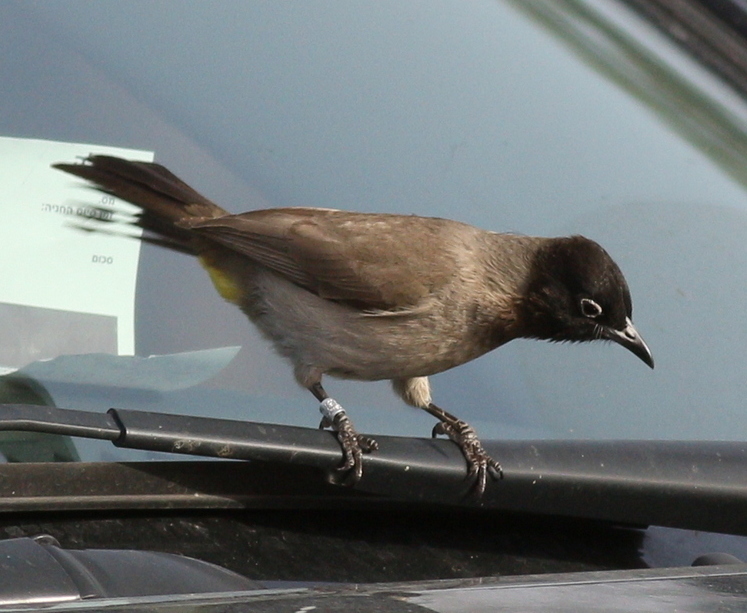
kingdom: Animalia
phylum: Chordata
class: Aves
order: Passeriformes
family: Pycnonotidae
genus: Pycnonotus
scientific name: Pycnonotus xanthopygos
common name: White-spectacled bulbul
